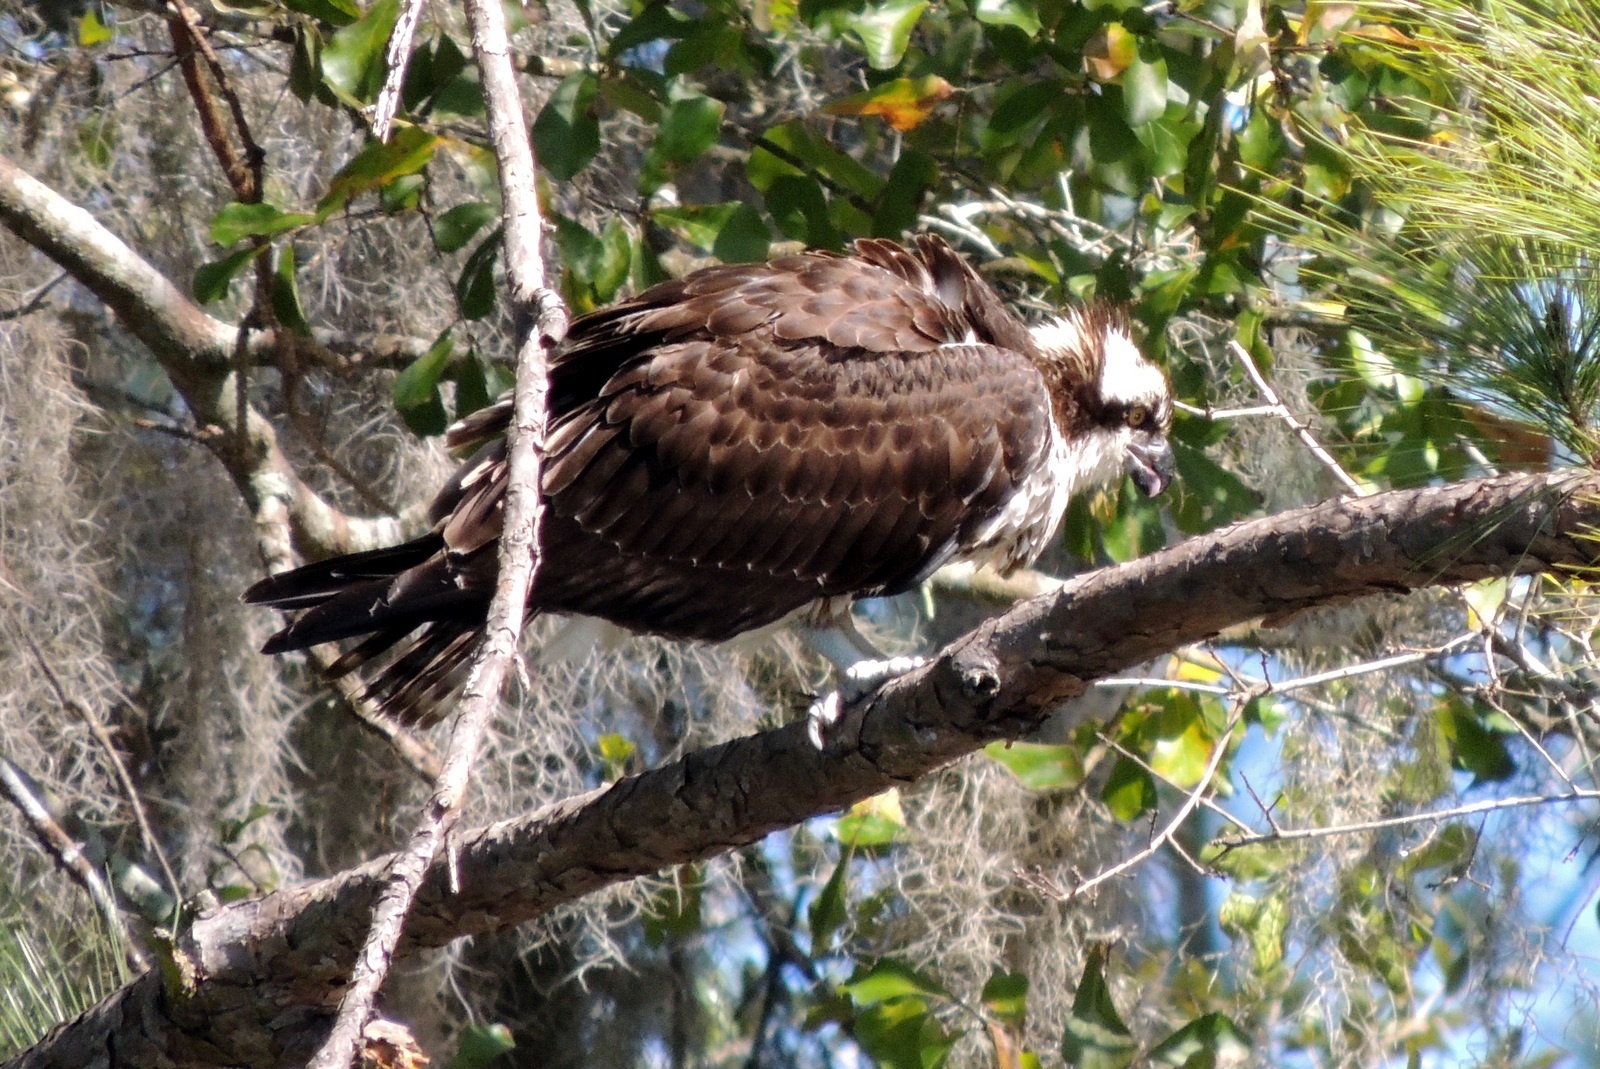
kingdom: Animalia
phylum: Chordata
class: Aves
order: Accipitriformes
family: Pandionidae
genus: Pandion
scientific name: Pandion haliaetus
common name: Osprey
